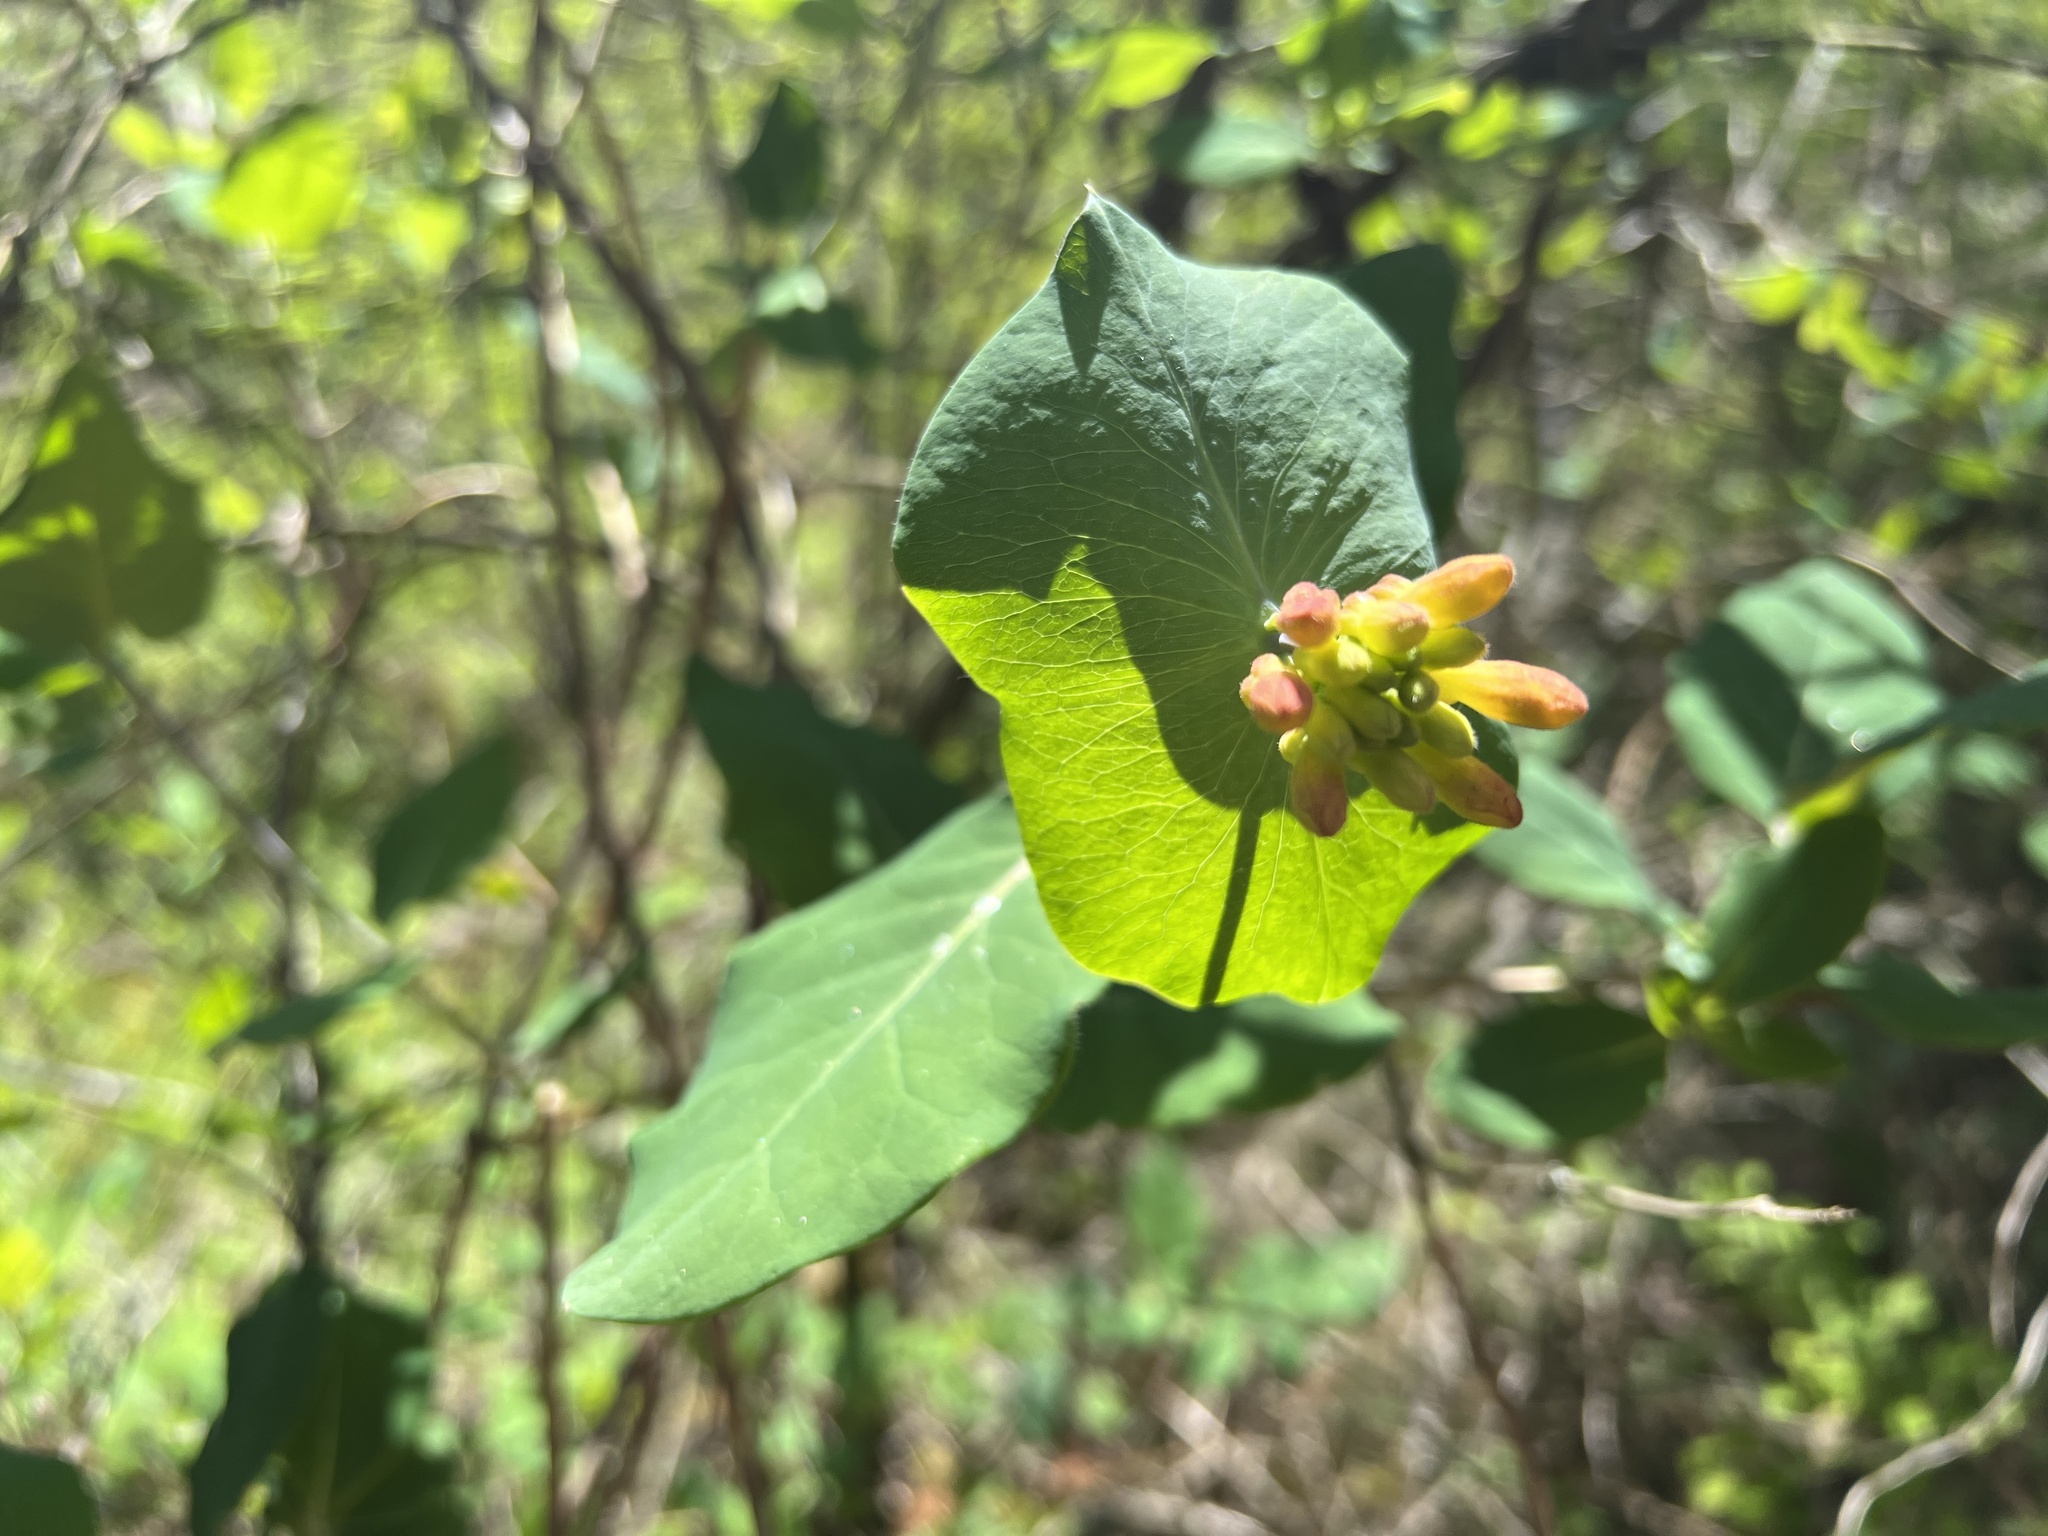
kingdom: Plantae
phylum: Tracheophyta
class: Magnoliopsida
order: Dipsacales
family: Caprifoliaceae
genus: Lonicera
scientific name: Lonicera ciliosa
